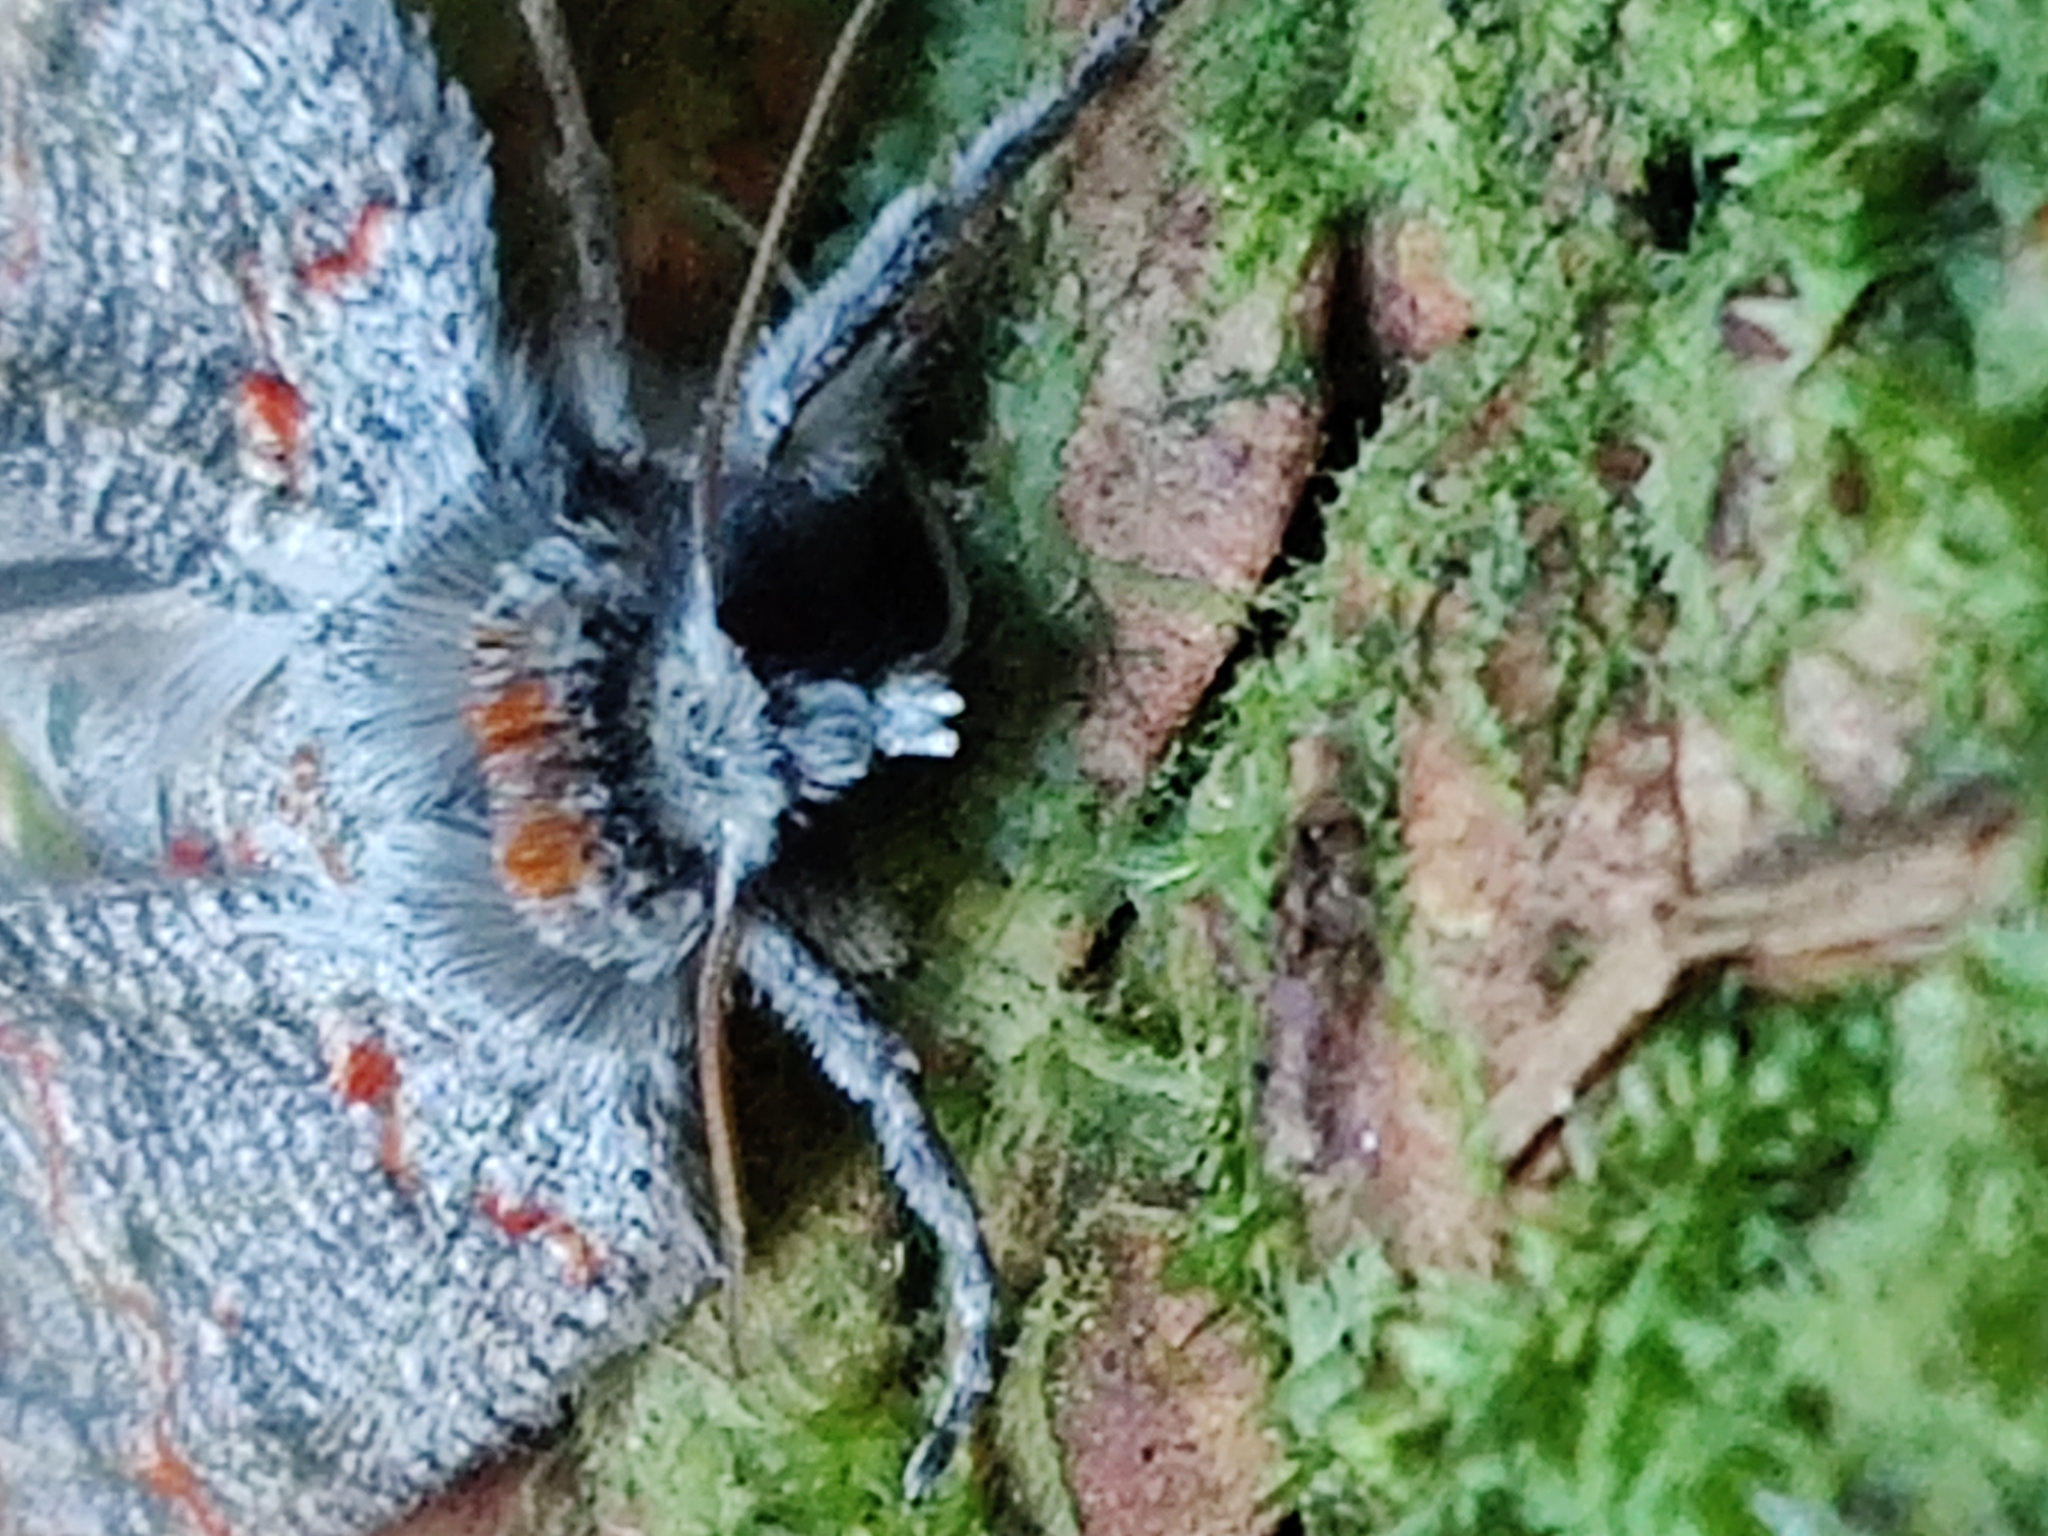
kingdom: Animalia
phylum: Arthropoda
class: Insecta
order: Lepidoptera
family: Geometridae
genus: Declana
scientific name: Declana floccosa
